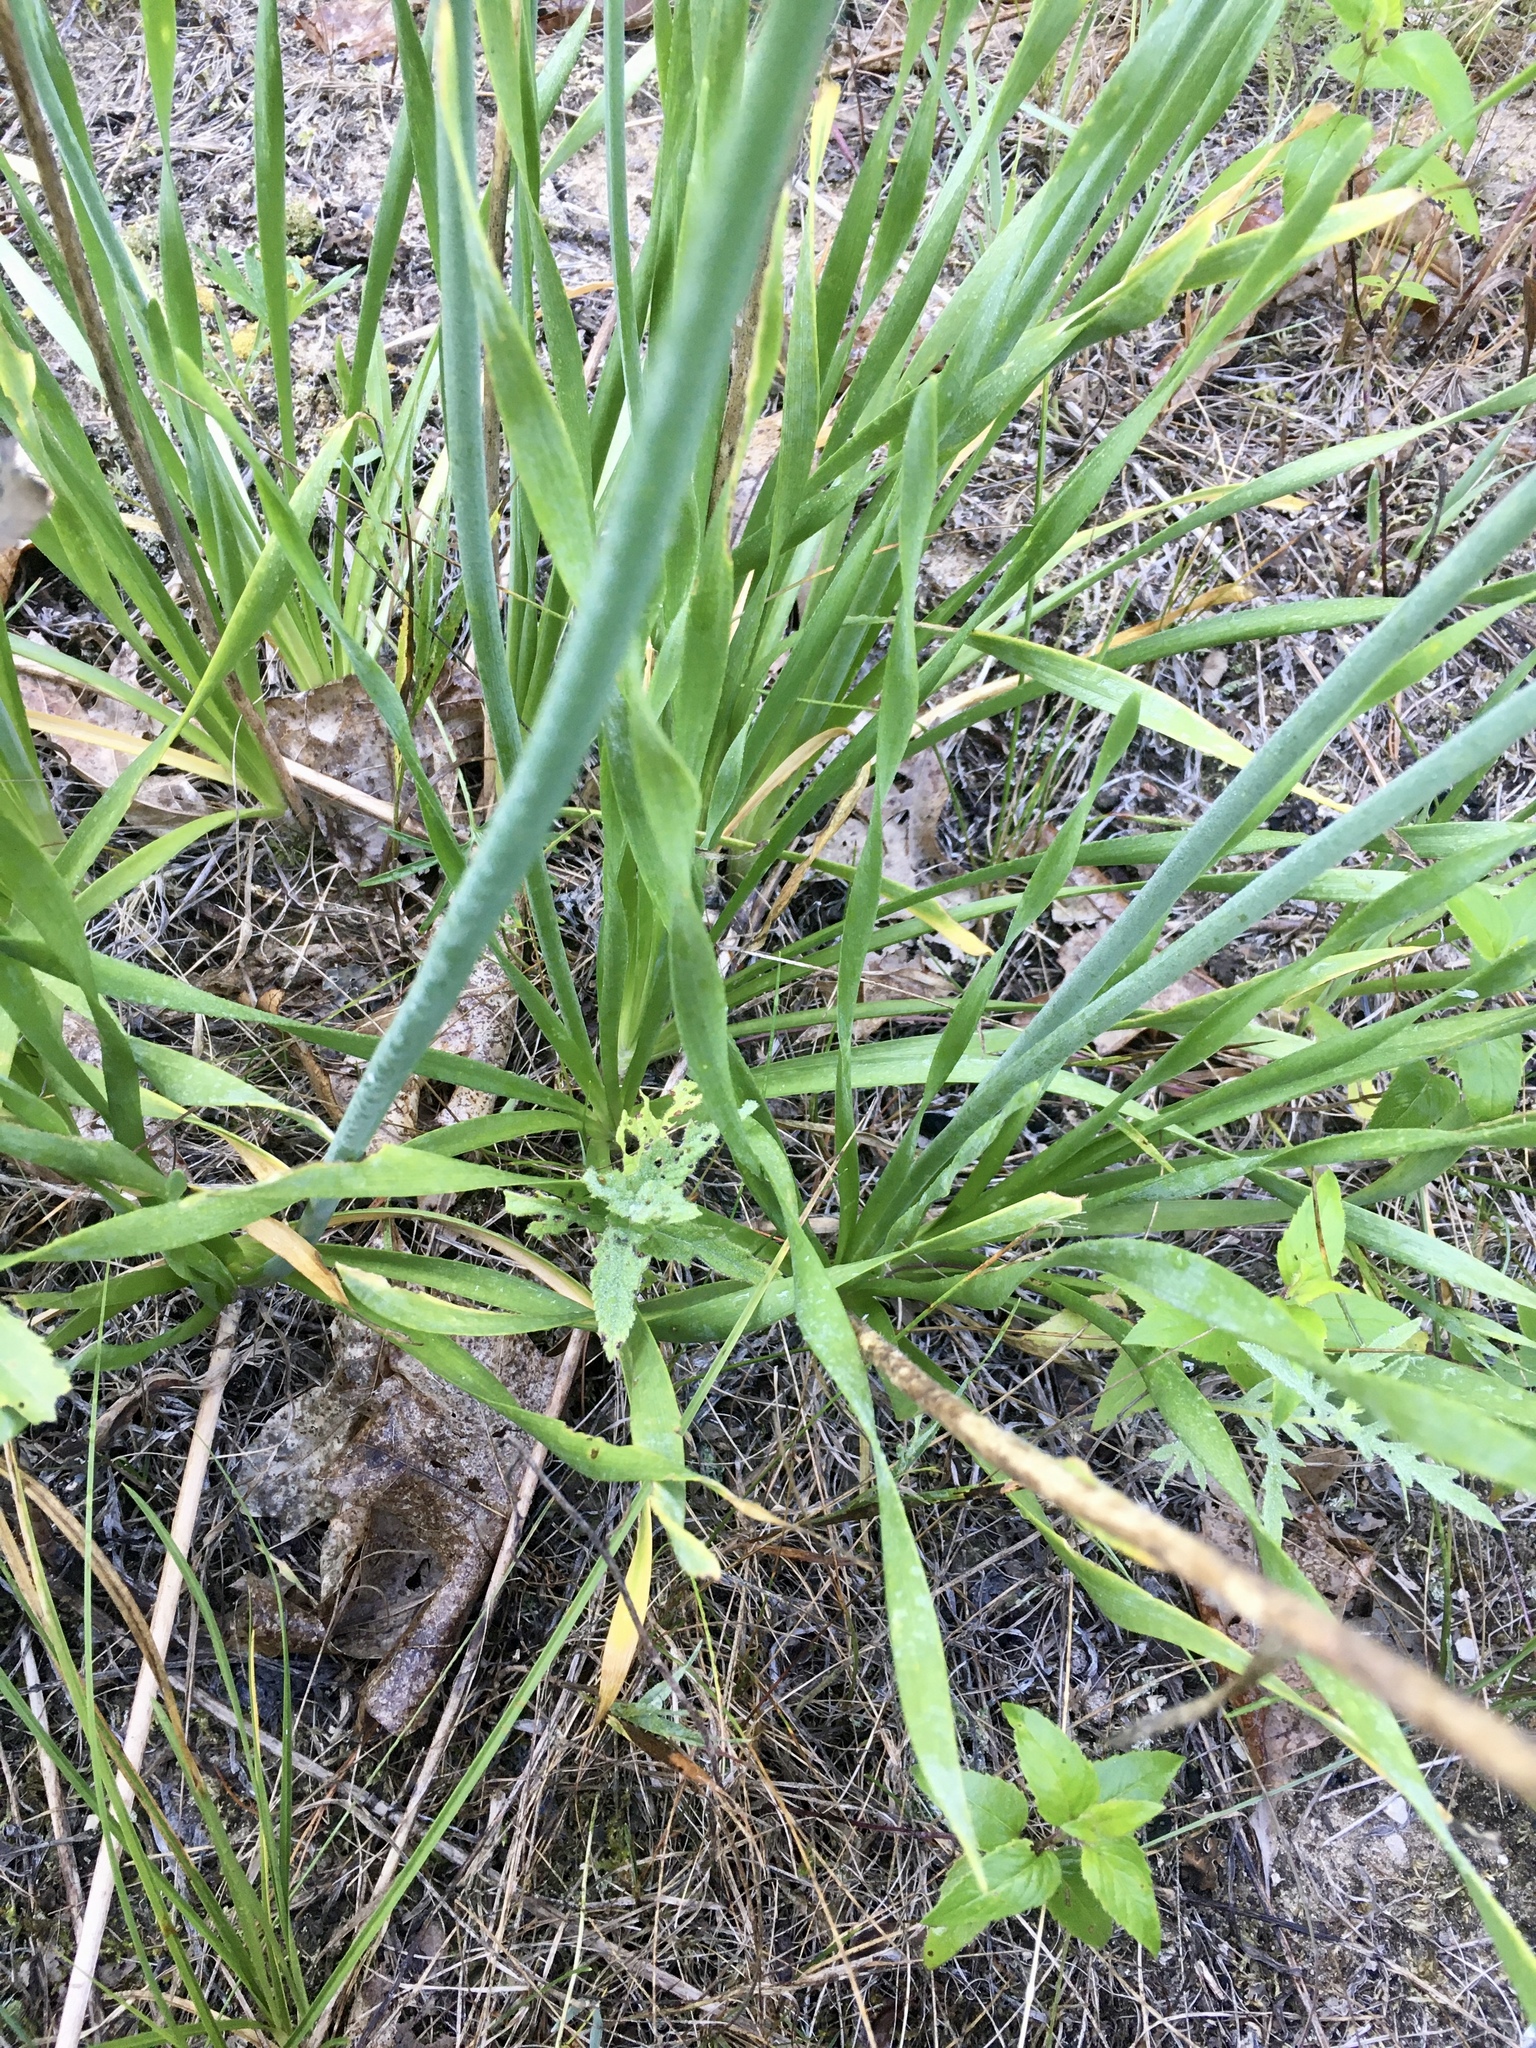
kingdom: Plantae
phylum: Tracheophyta
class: Liliopsida
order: Asparagales
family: Amaryllidaceae
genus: Allium
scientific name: Allium cernuum
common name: Nodding onion
